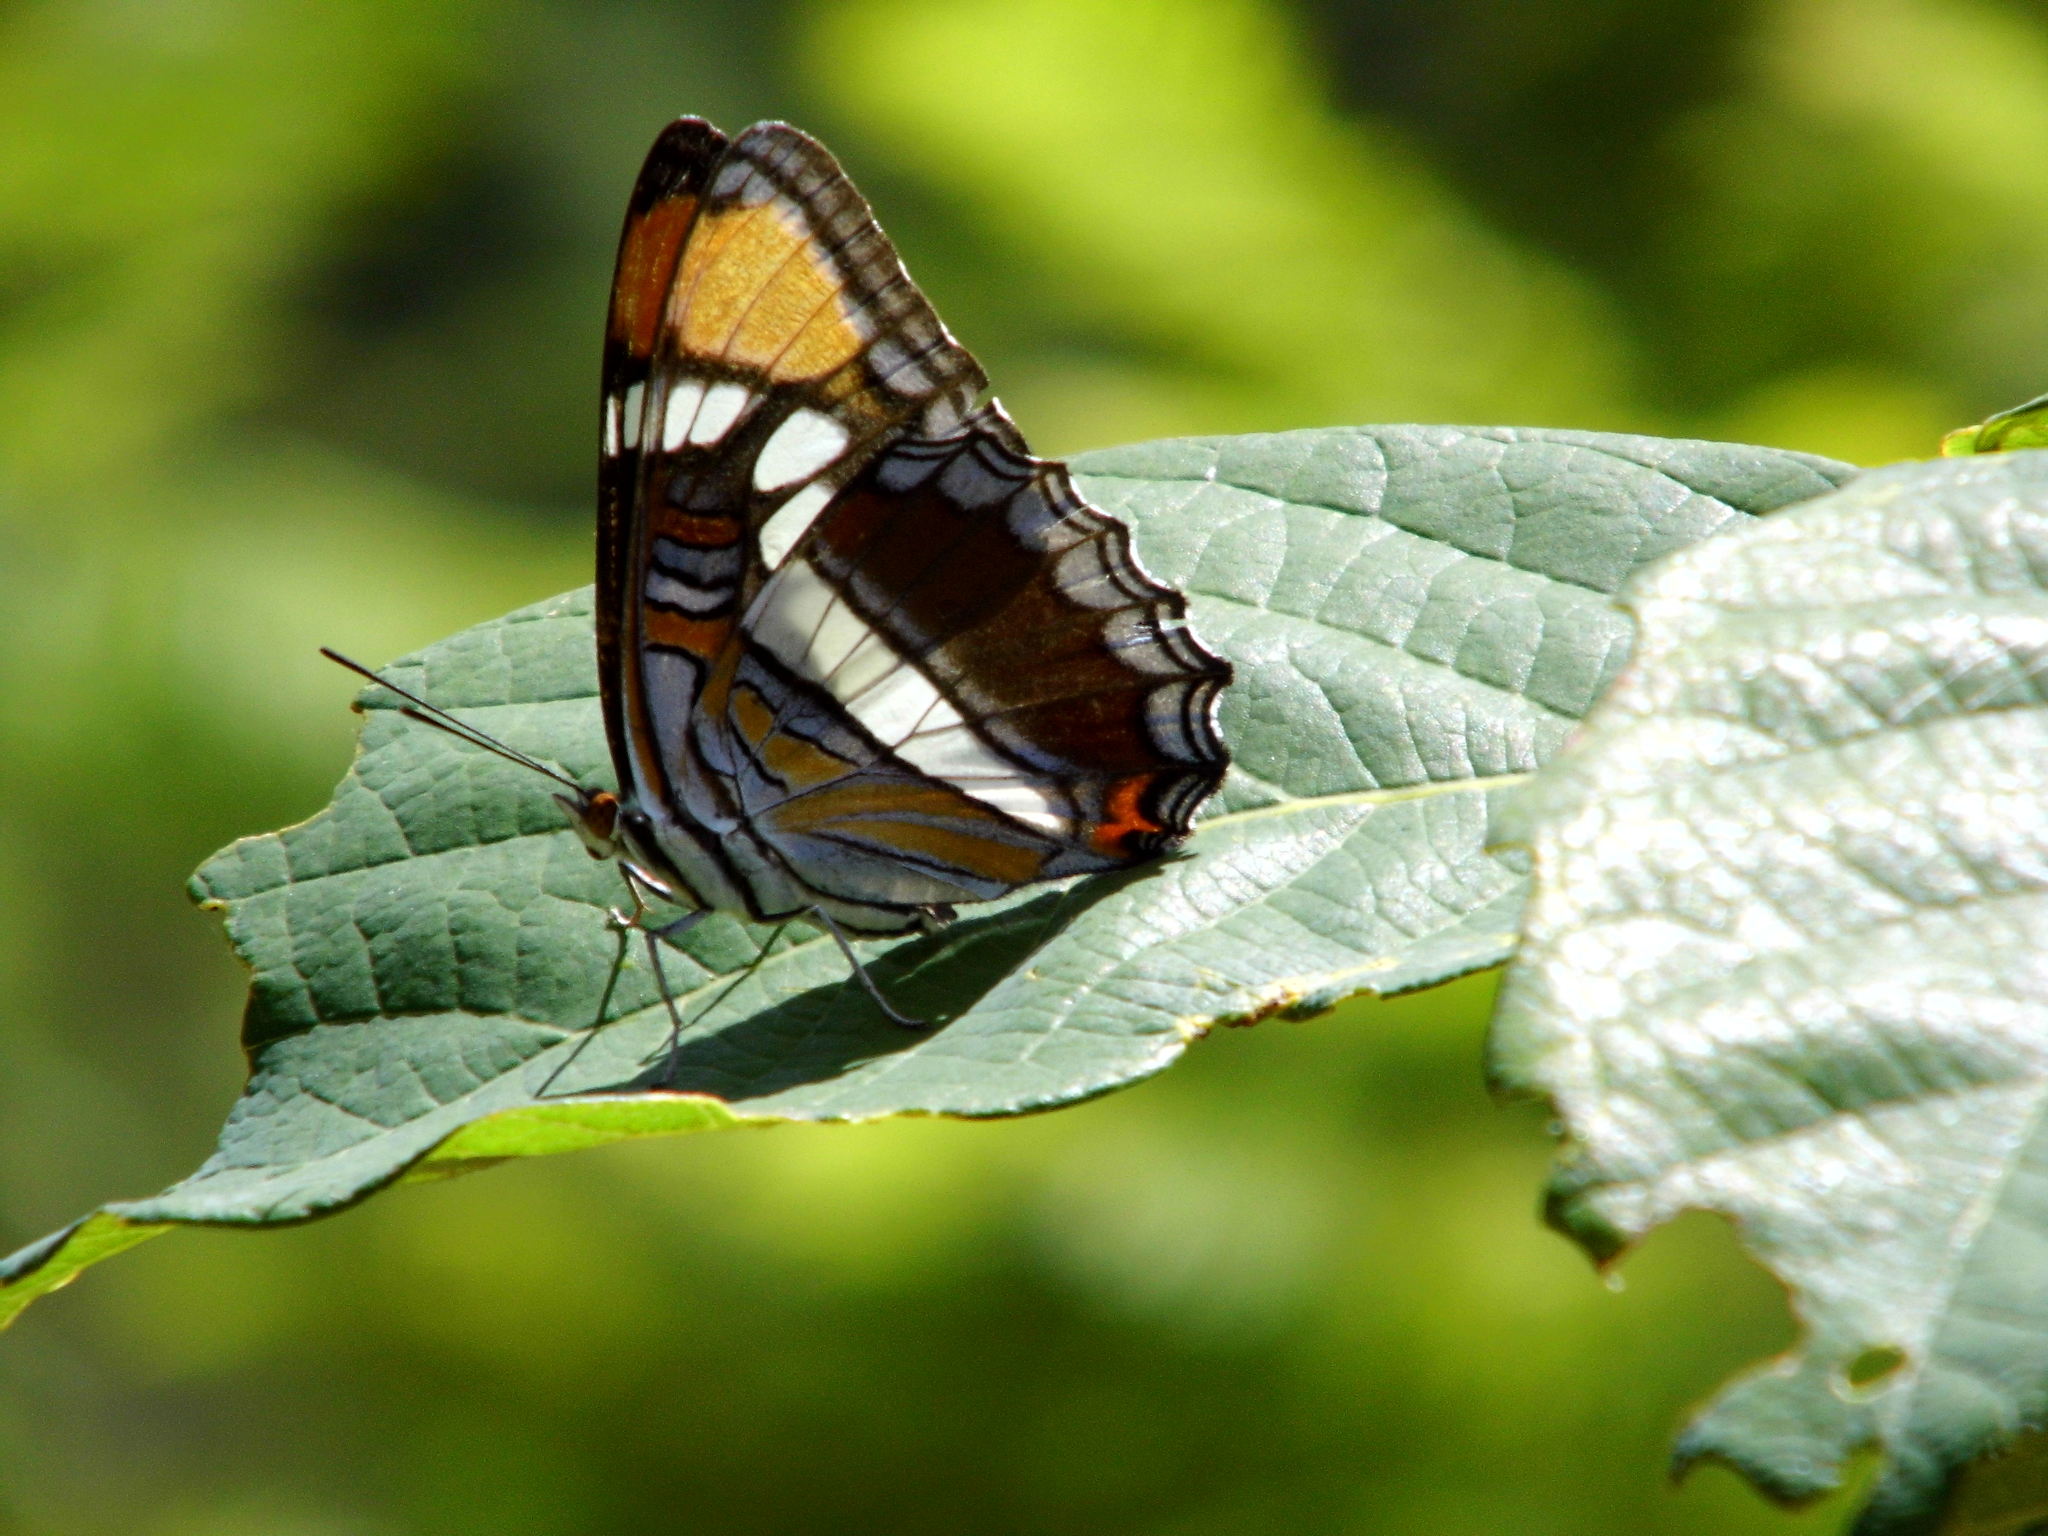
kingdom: Animalia
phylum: Arthropoda
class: Insecta
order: Lepidoptera
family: Nymphalidae
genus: Limenitis
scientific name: Limenitis bredowii
